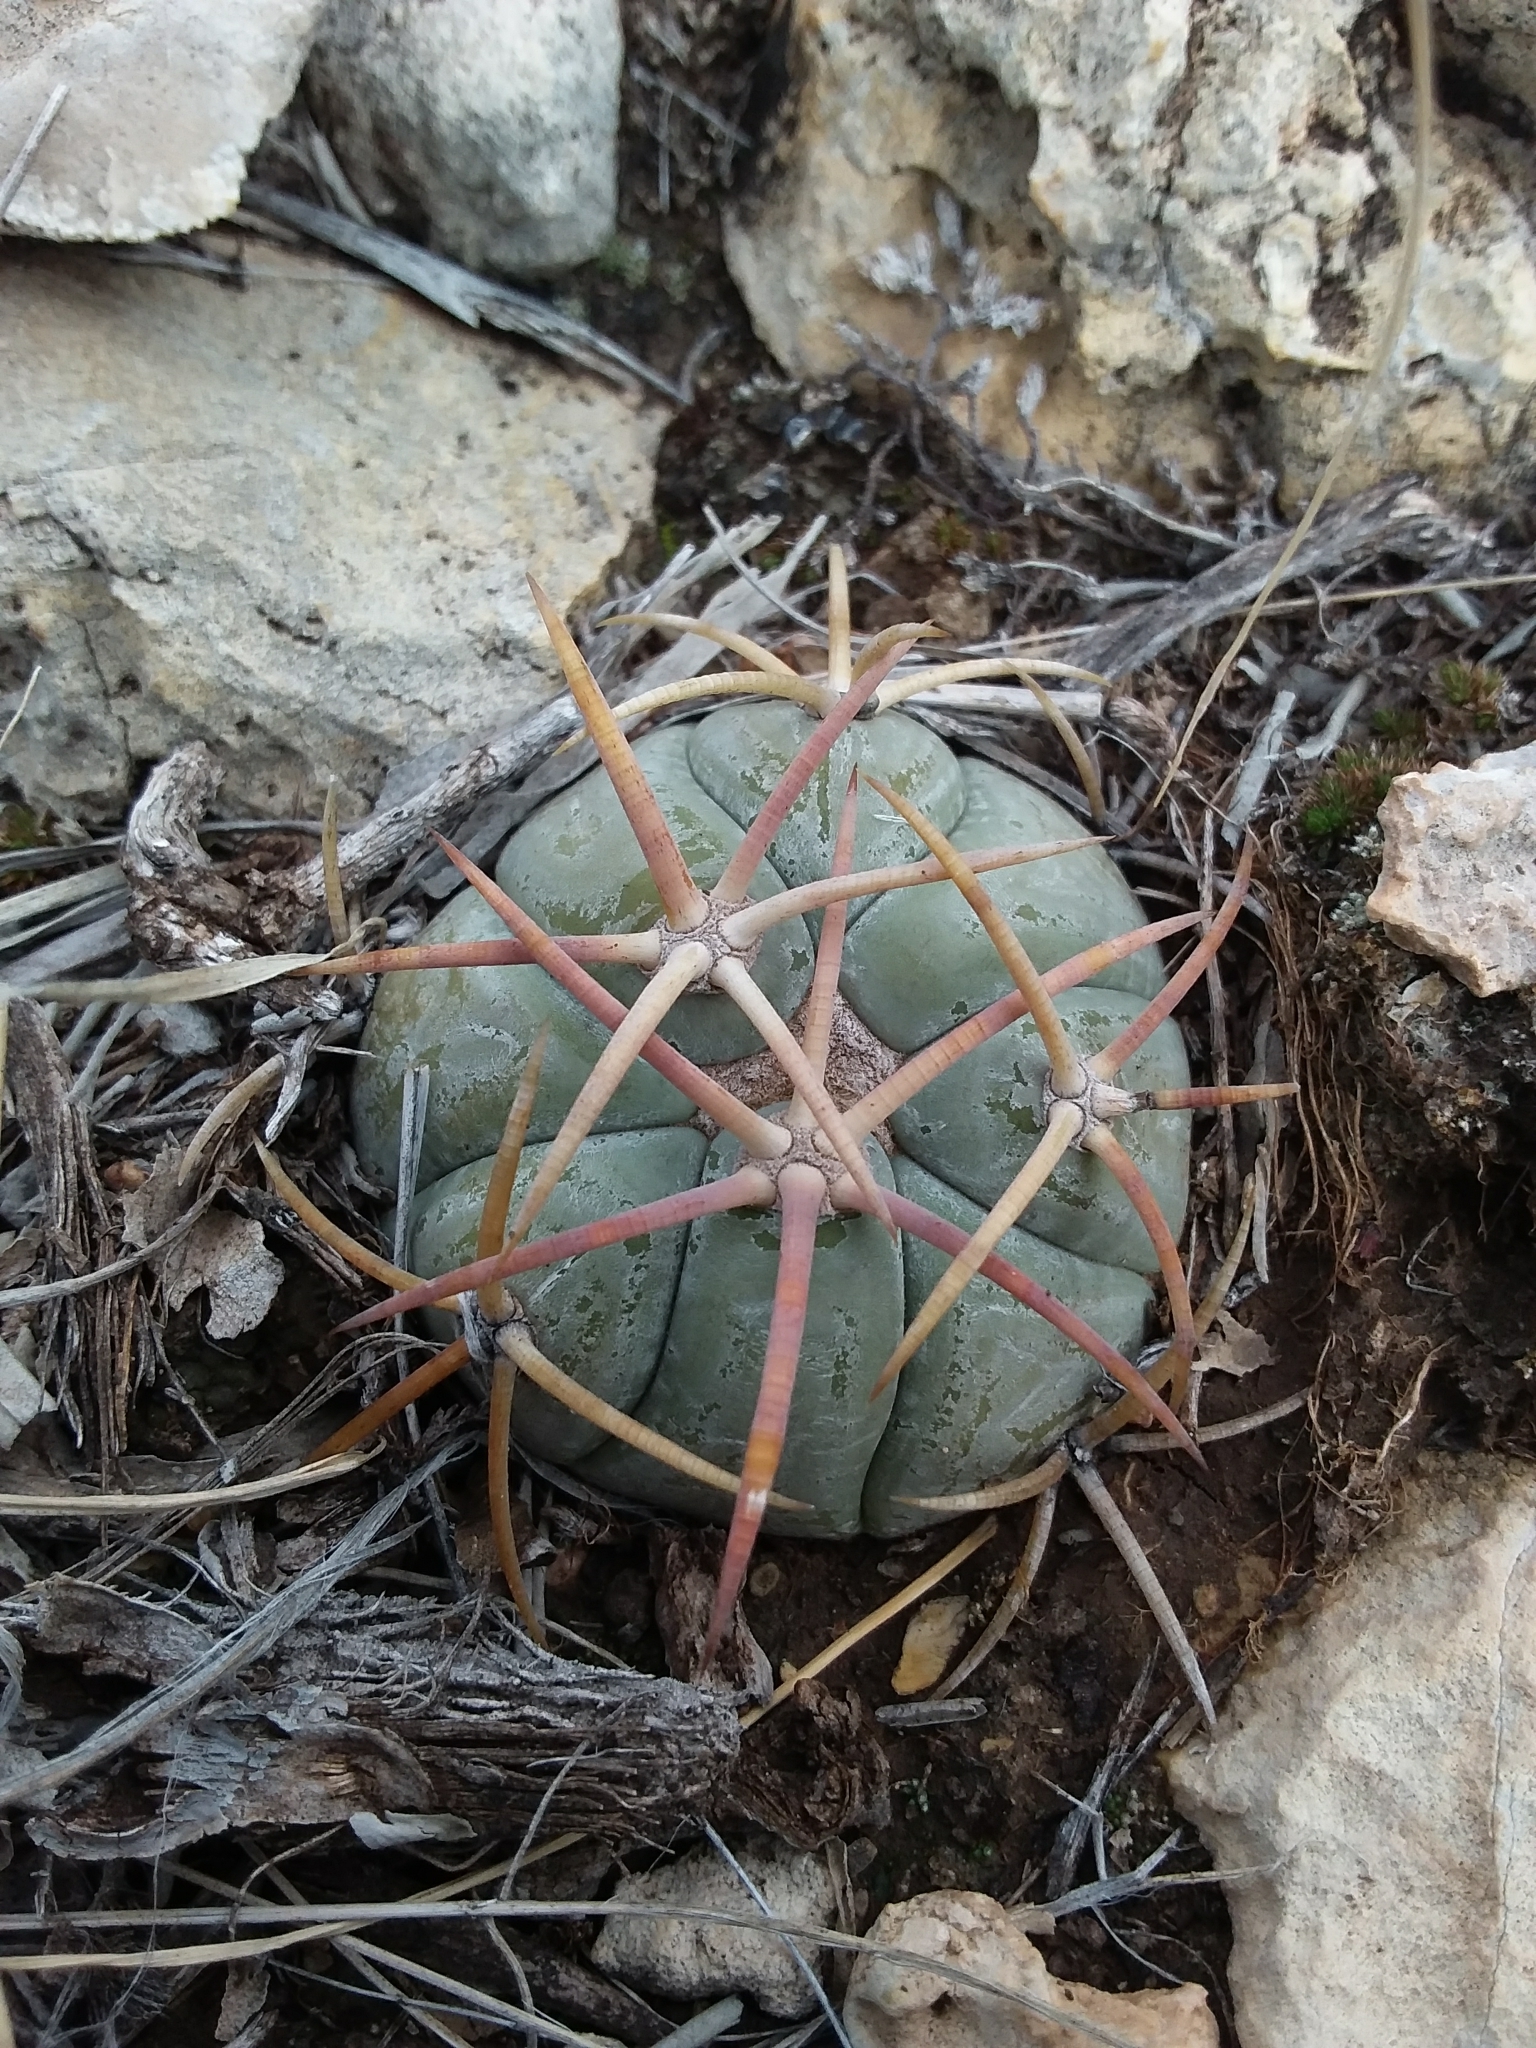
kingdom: Plantae
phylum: Tracheophyta
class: Magnoliopsida
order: Caryophyllales
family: Cactaceae
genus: Echinocactus
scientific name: Echinocactus horizonthalonius
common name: Devilshead
